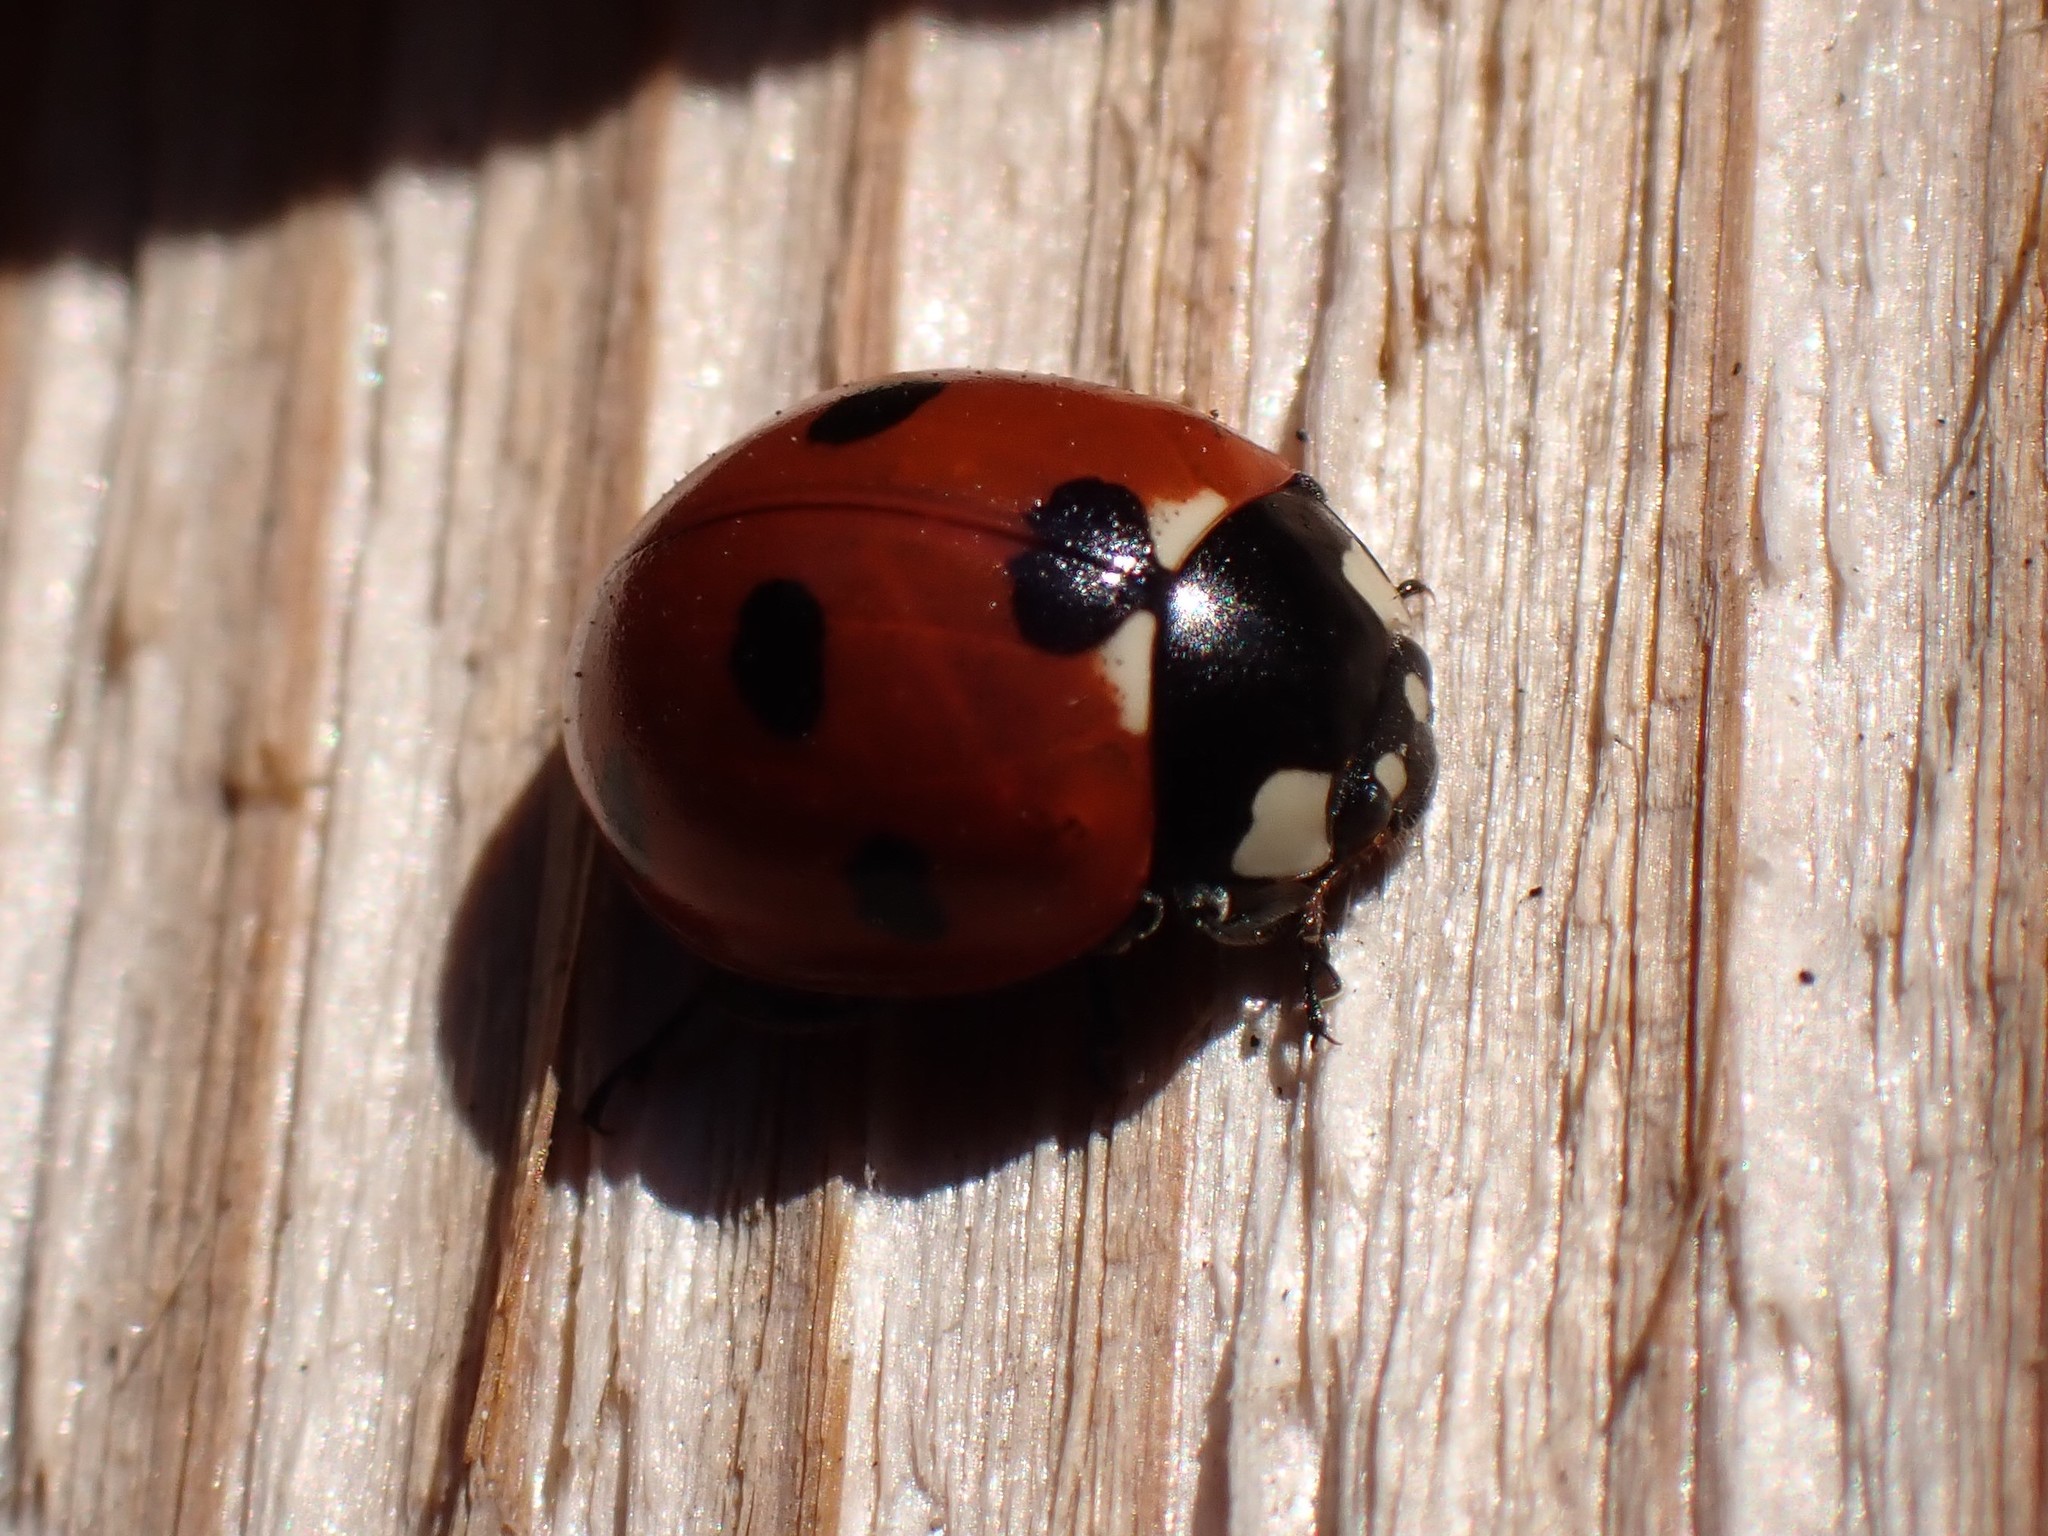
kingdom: Animalia
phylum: Arthropoda
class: Insecta
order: Coleoptera
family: Coccinellidae
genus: Coccinella
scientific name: Coccinella septempunctata
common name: Sevenspotted lady beetle
